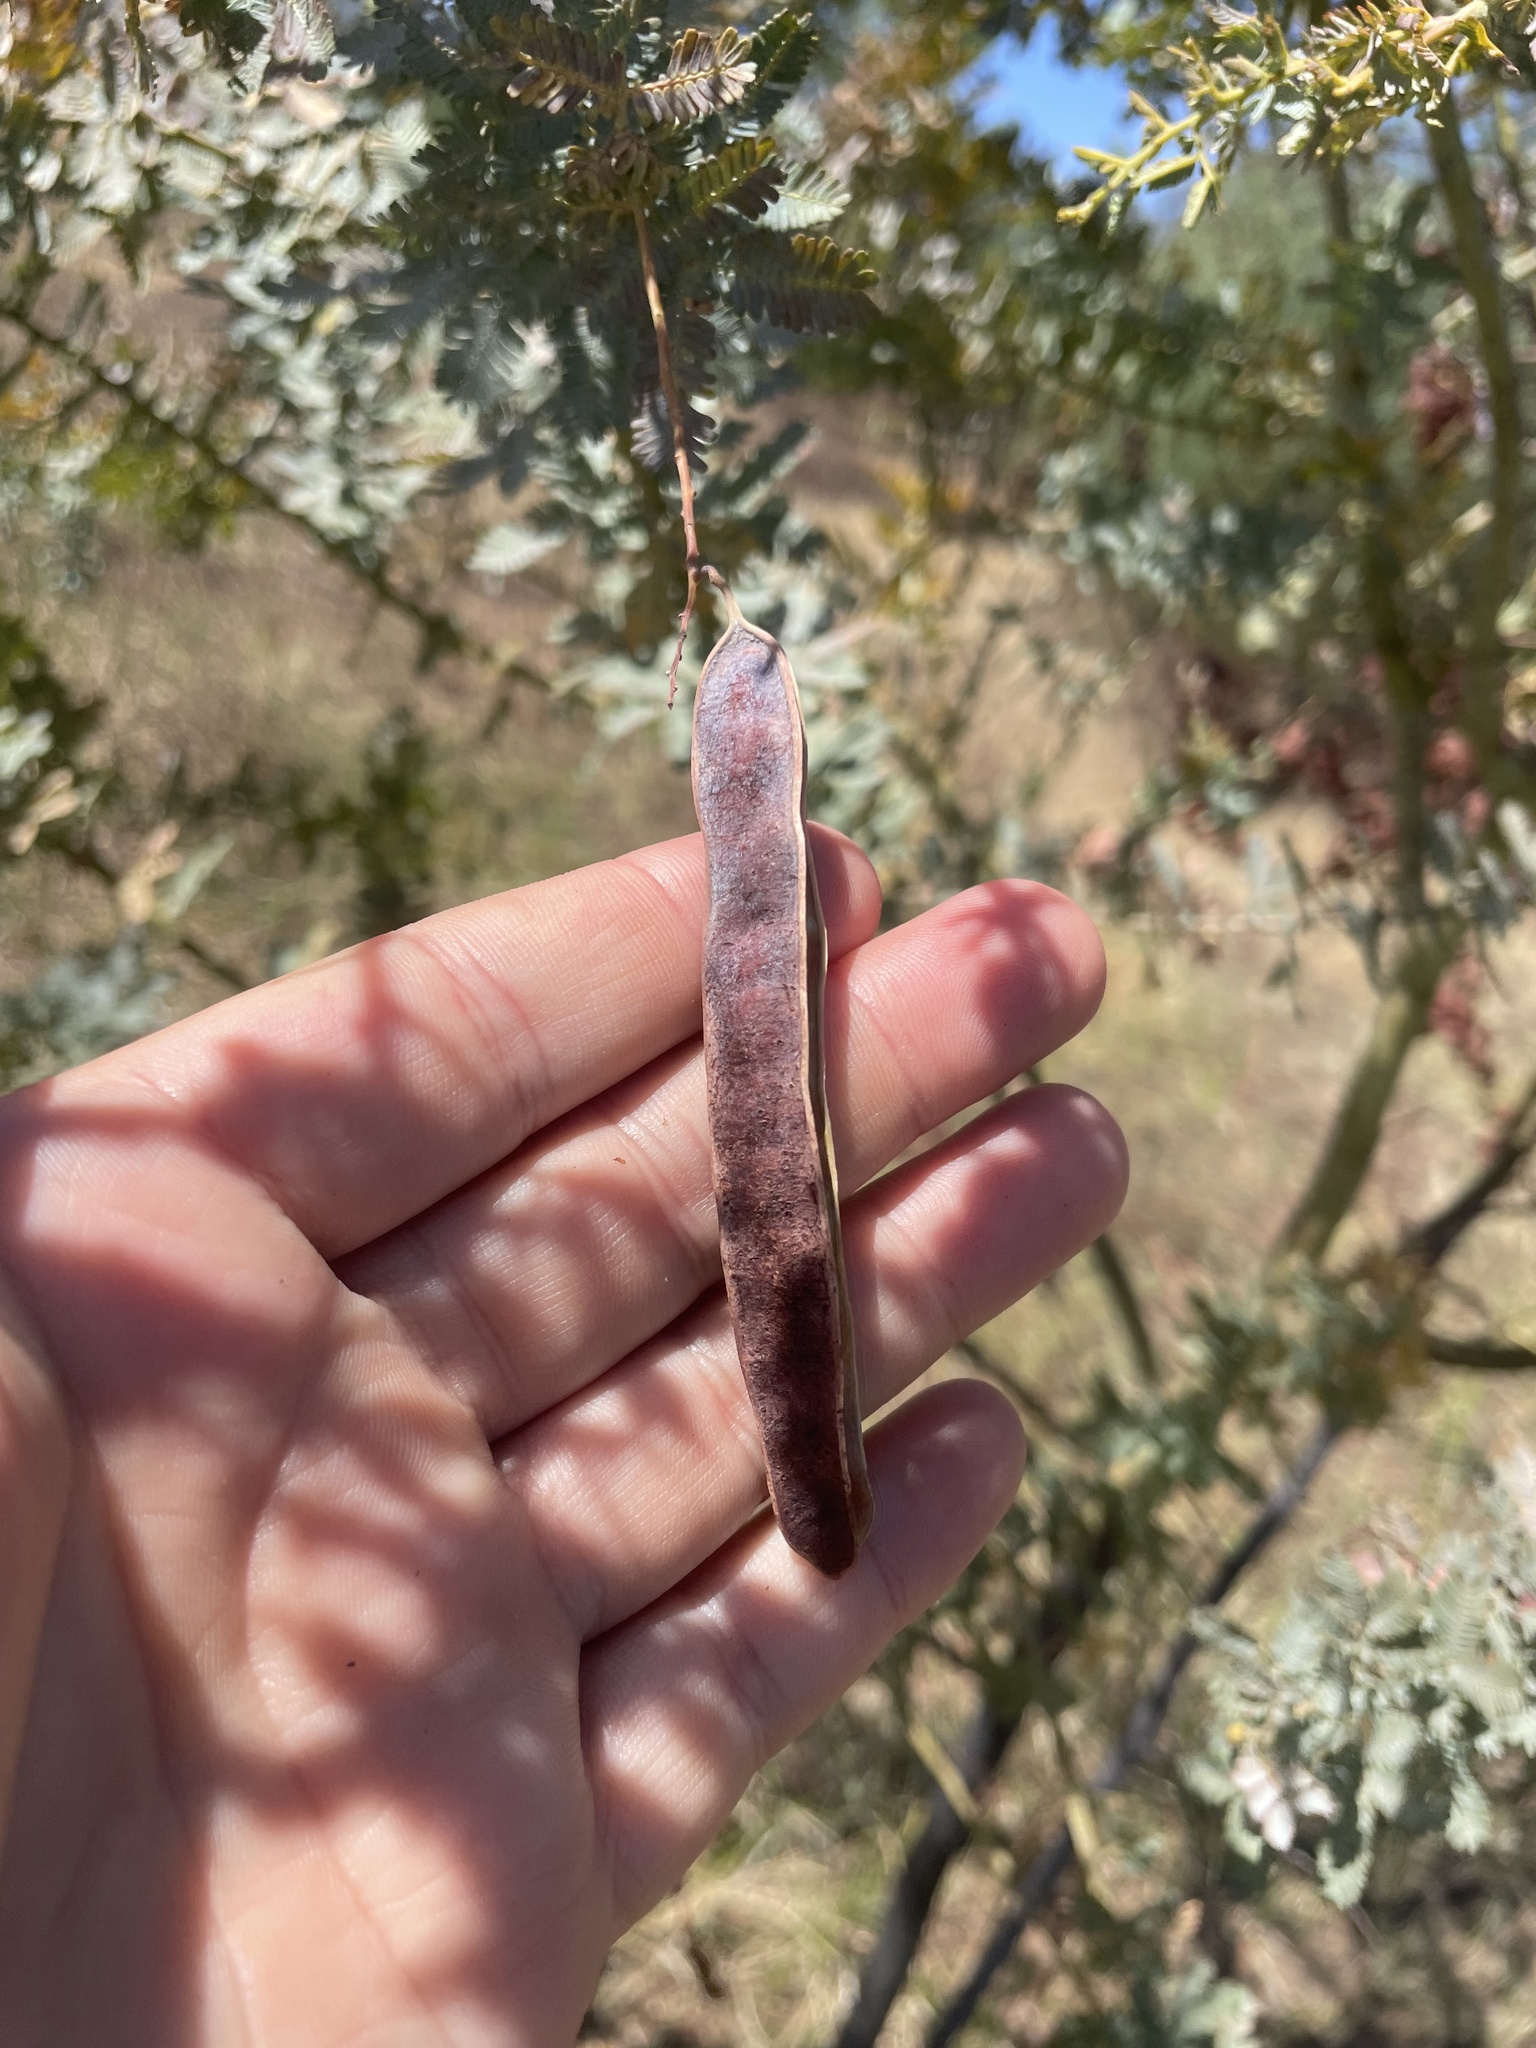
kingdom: Plantae
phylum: Tracheophyta
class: Magnoliopsida
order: Fabales
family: Fabaceae
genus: Acacia
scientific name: Acacia baileyana
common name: Cootamundra wattle
